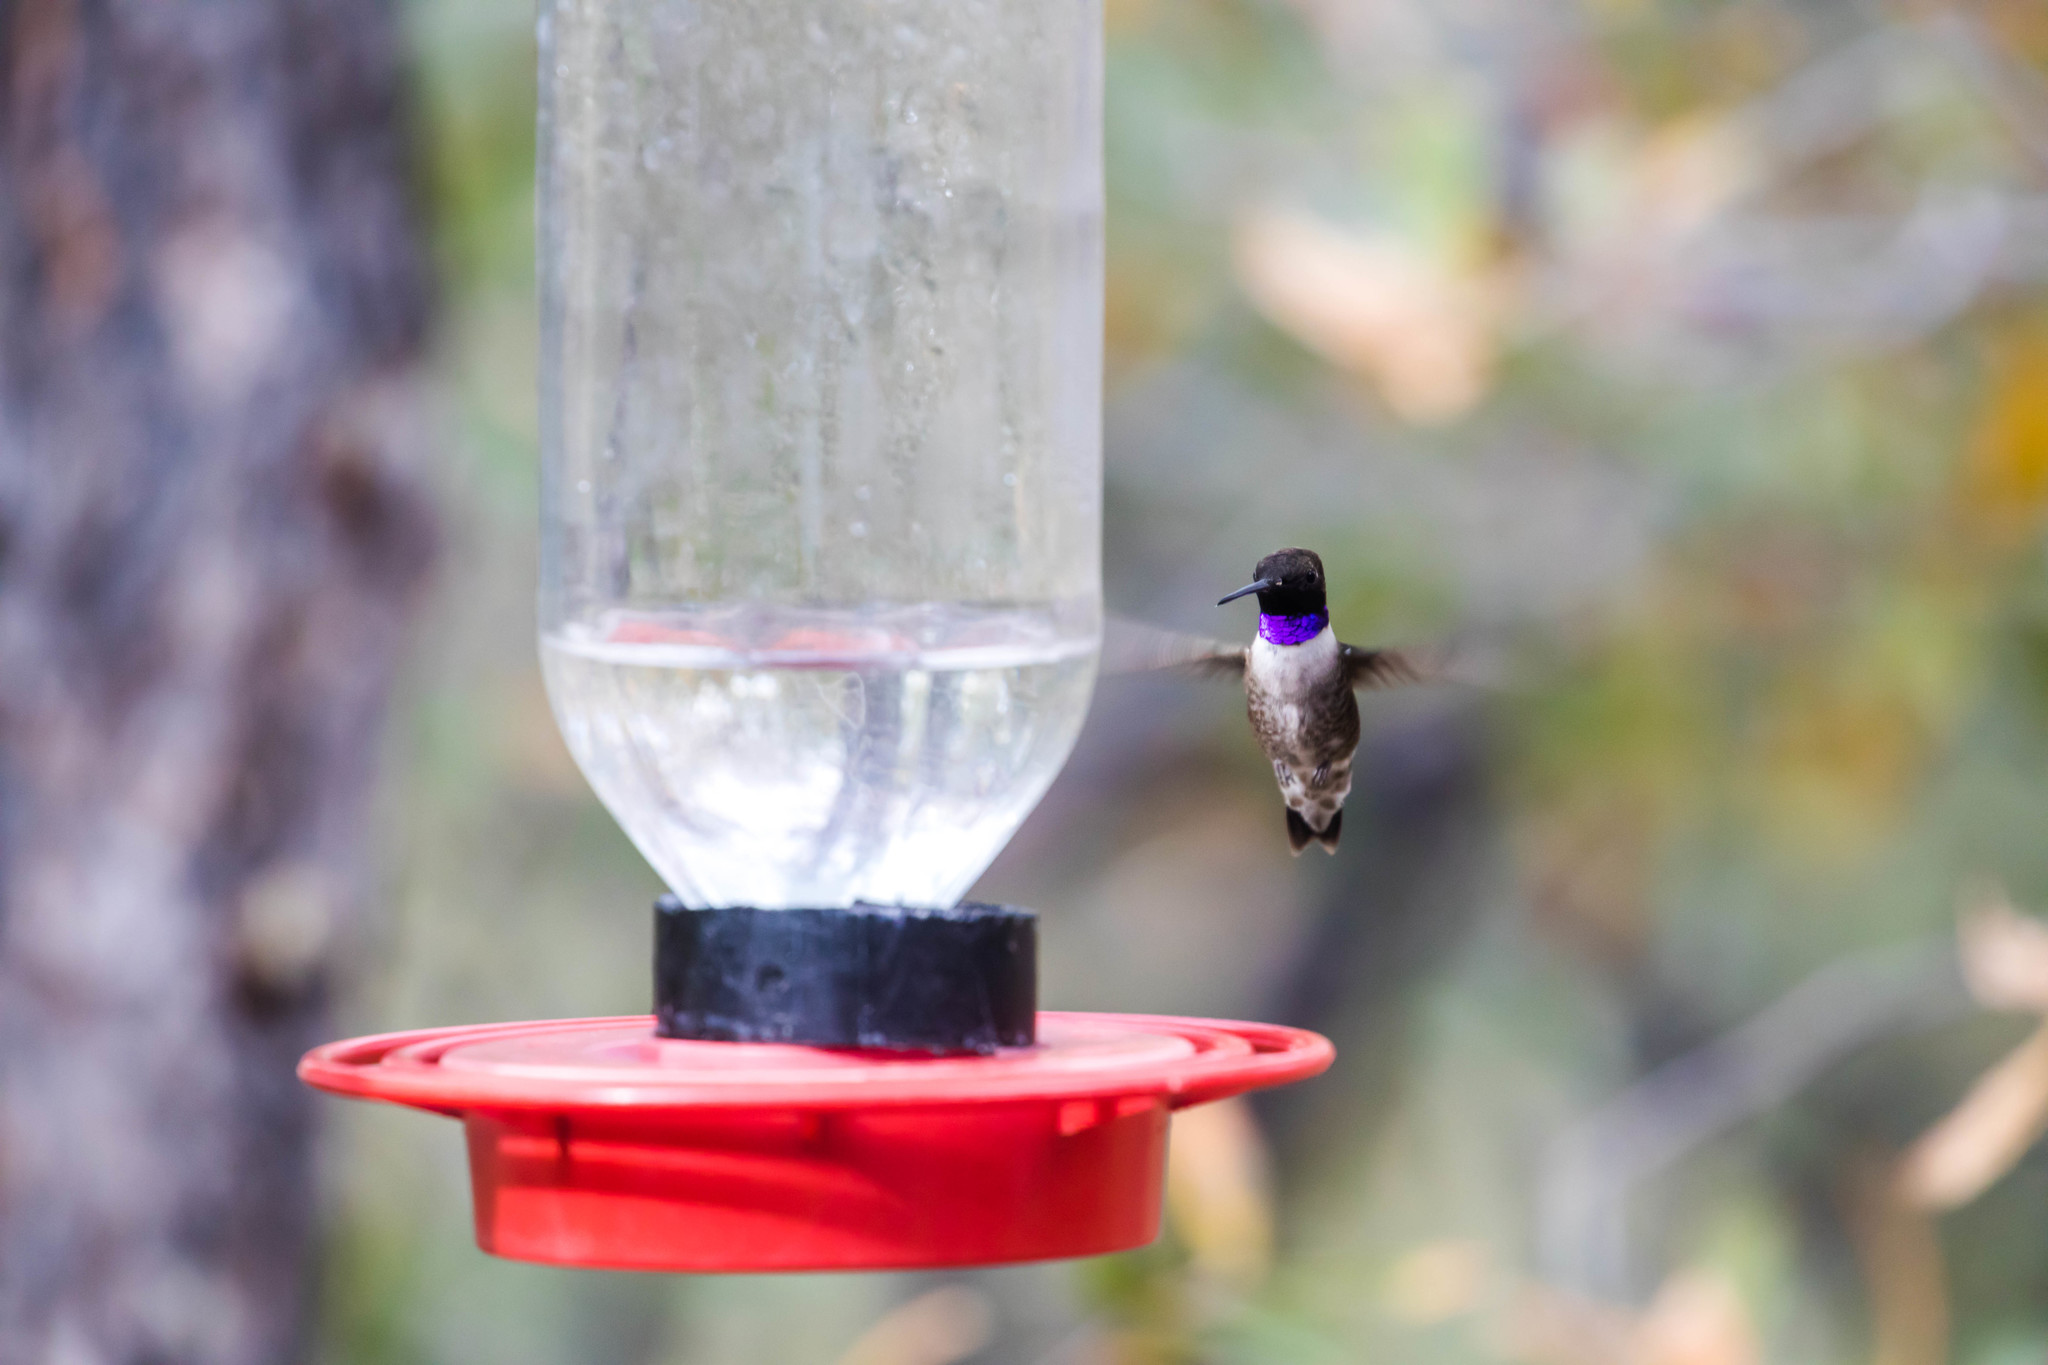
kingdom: Animalia
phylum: Chordata
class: Aves
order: Apodiformes
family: Trochilidae
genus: Archilochus
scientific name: Archilochus alexandri
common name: Black-chinned hummingbird
